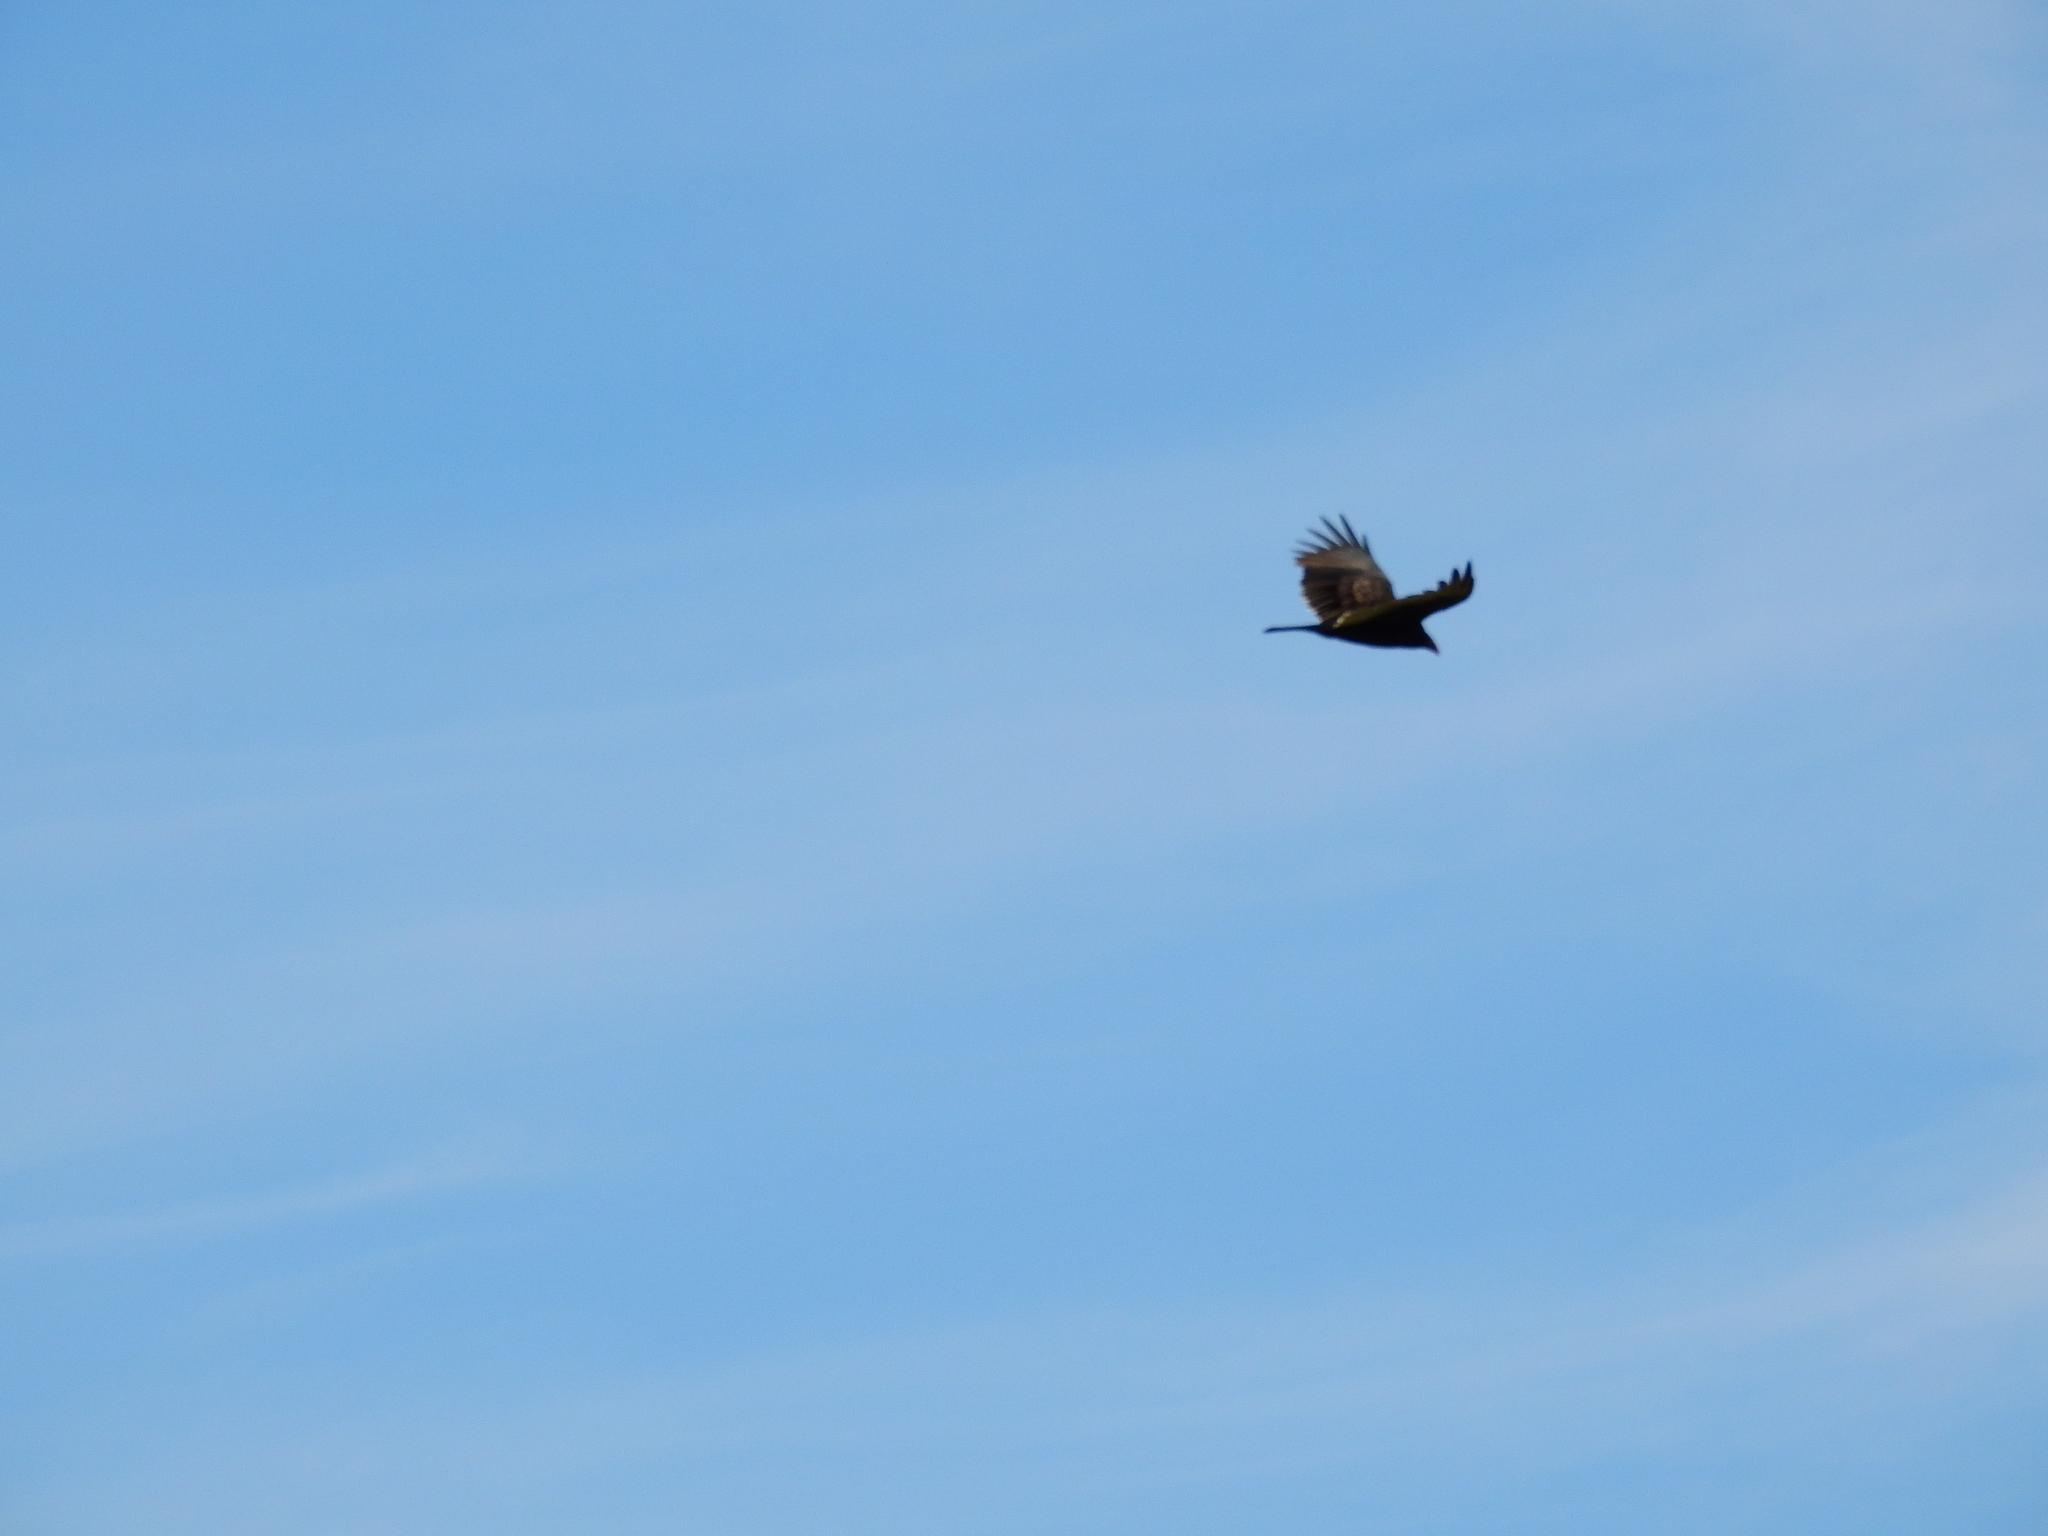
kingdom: Animalia
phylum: Chordata
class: Aves
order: Accipitriformes
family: Cathartidae
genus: Cathartes
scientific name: Cathartes aura
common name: Turkey vulture
